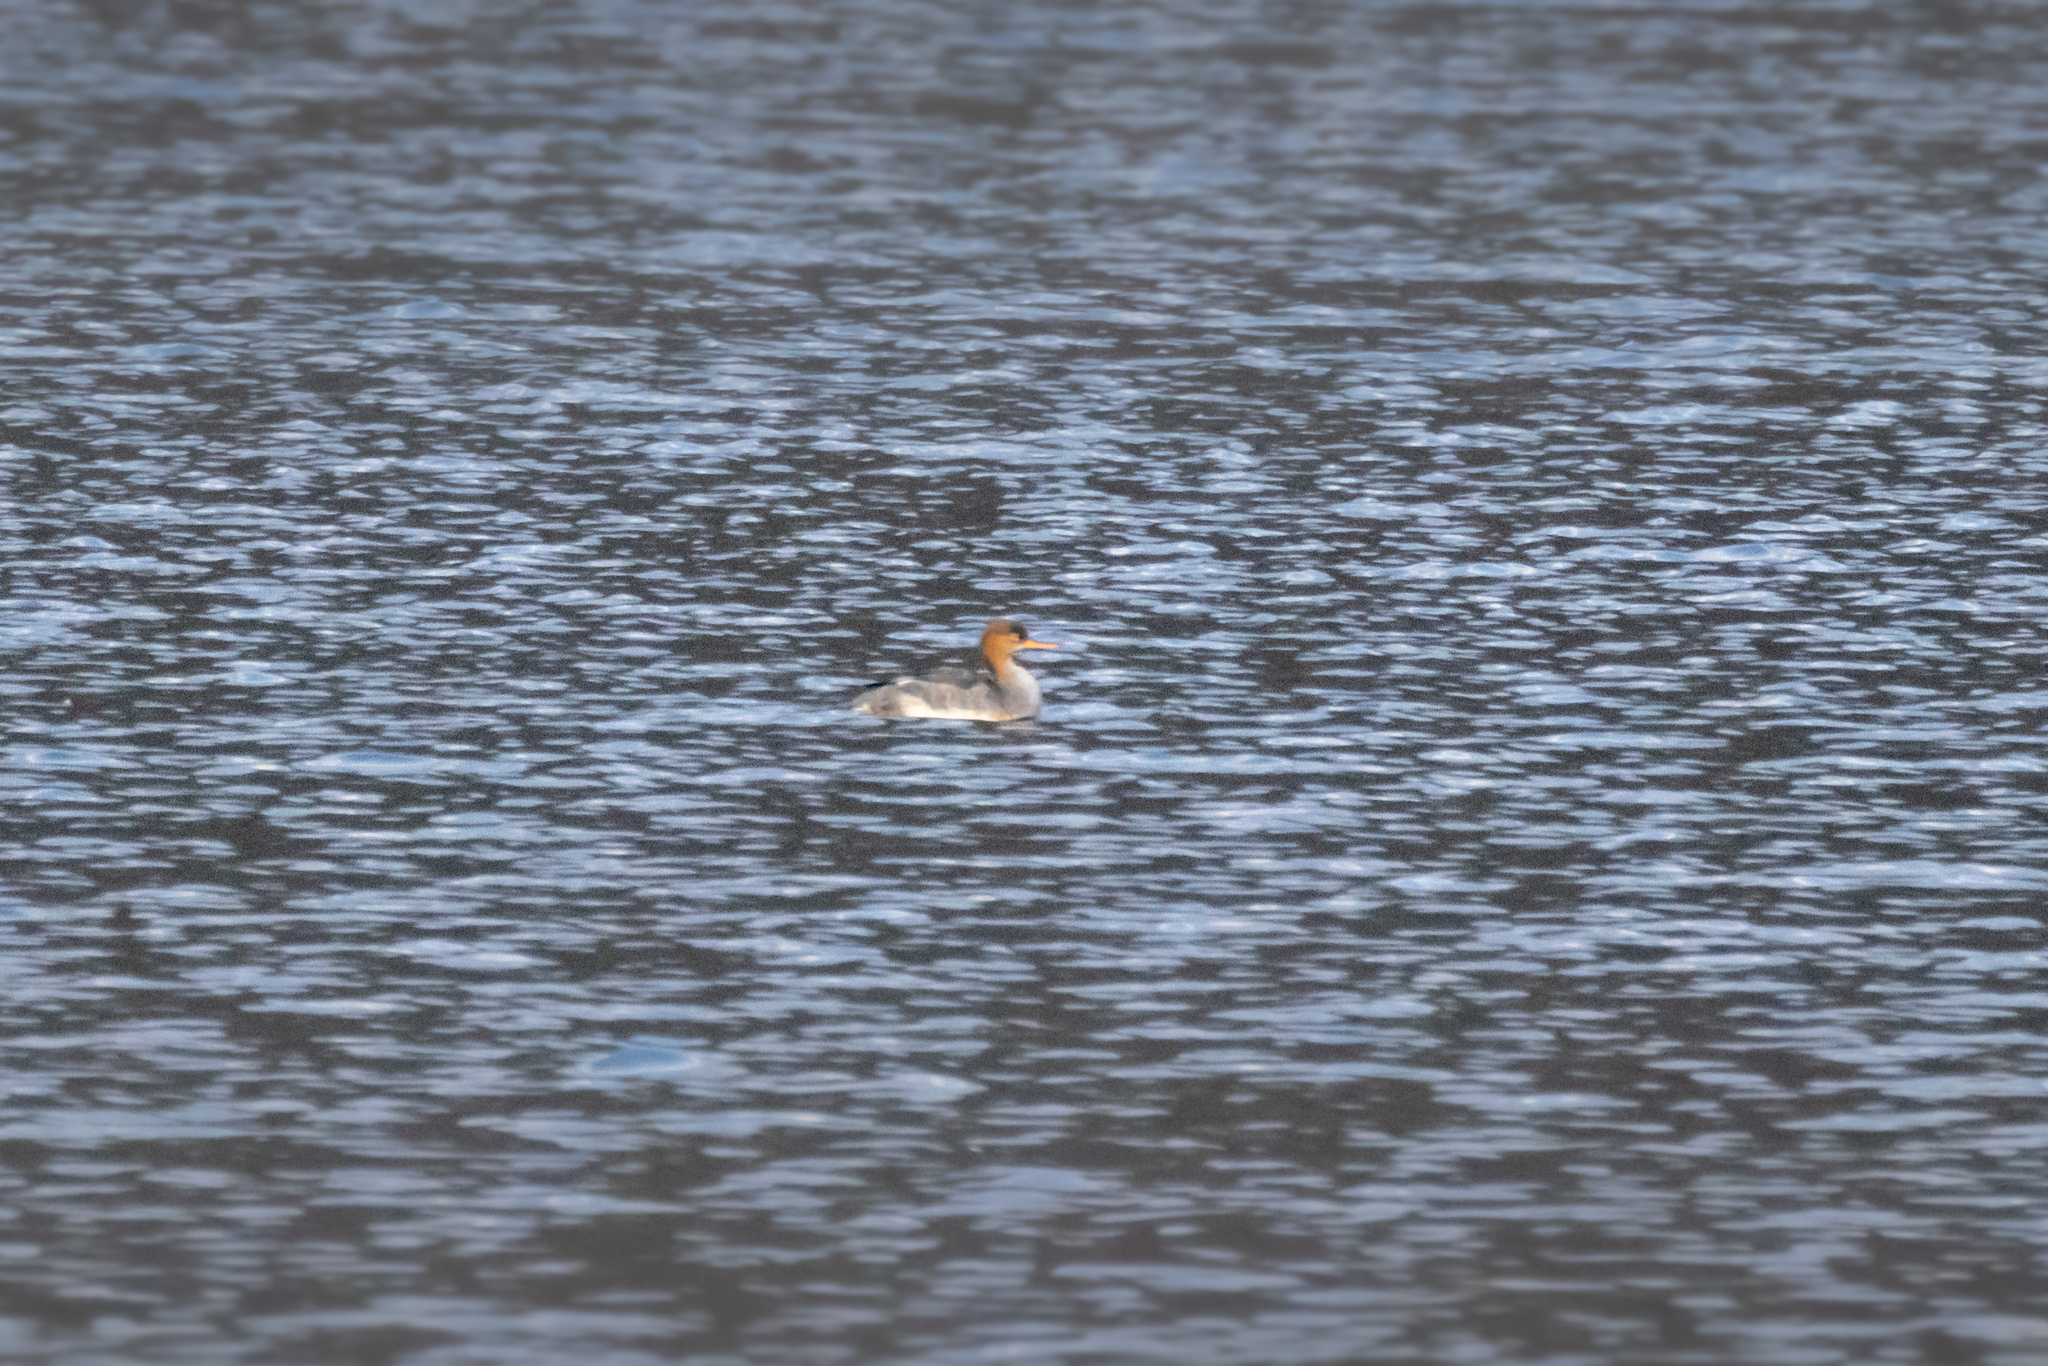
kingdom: Animalia
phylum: Chordata
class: Aves
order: Anseriformes
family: Anatidae
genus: Mergus
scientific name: Mergus serrator
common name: Red-breasted merganser
